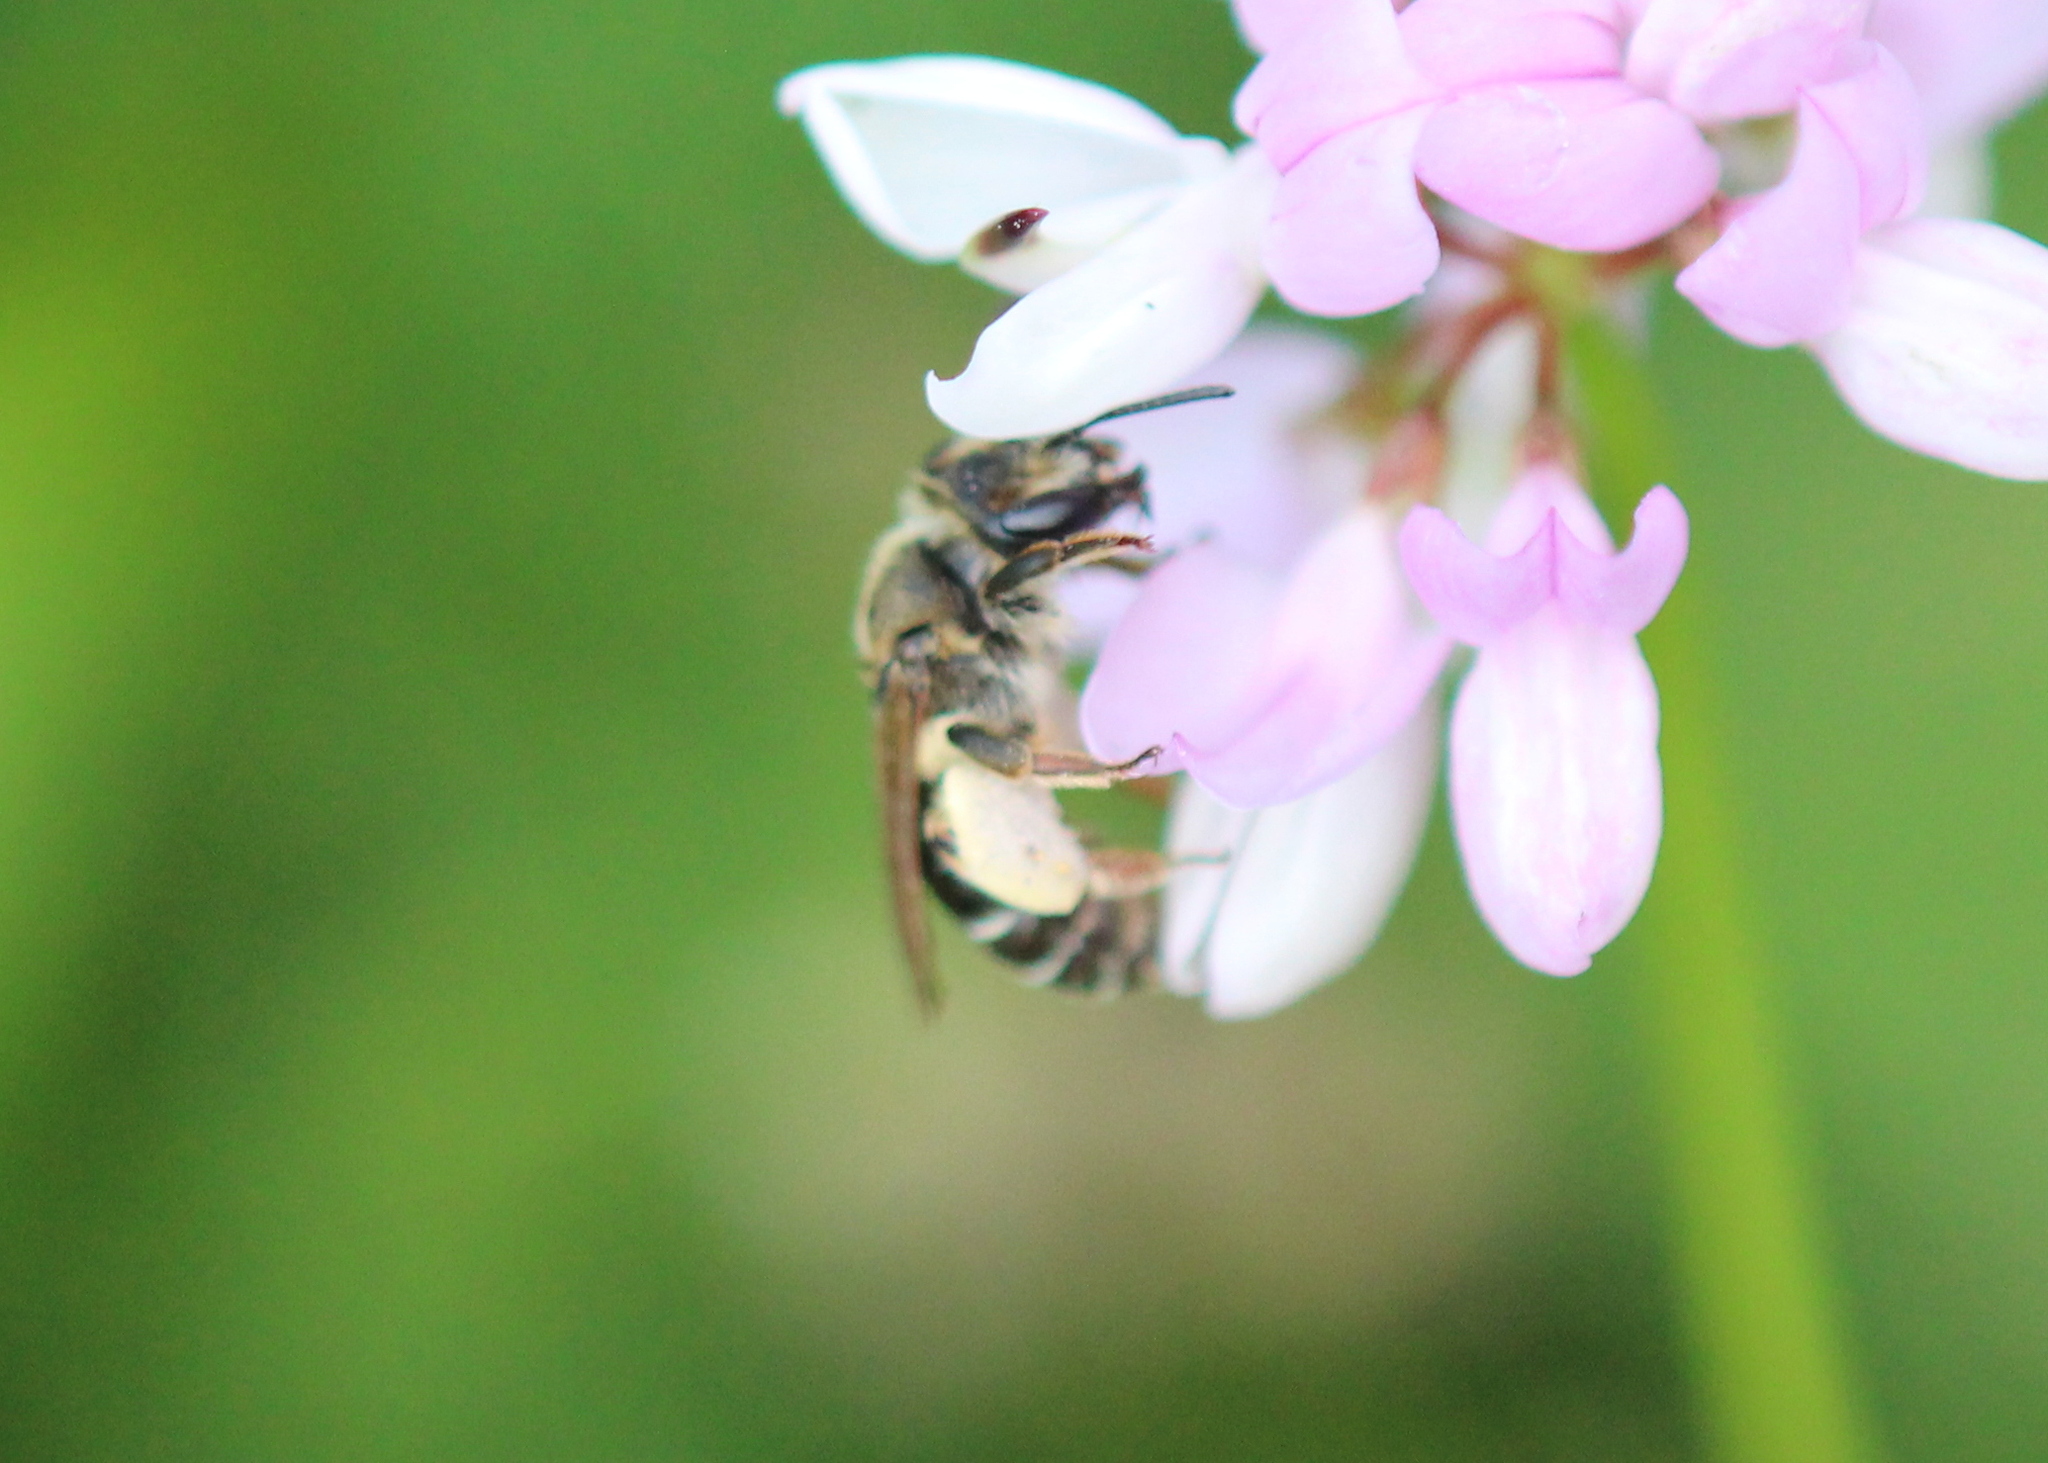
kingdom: Animalia
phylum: Arthropoda
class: Insecta
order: Hymenoptera
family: Andrenidae
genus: Andrena
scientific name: Andrena wilkella
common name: Wilke's mining bee
